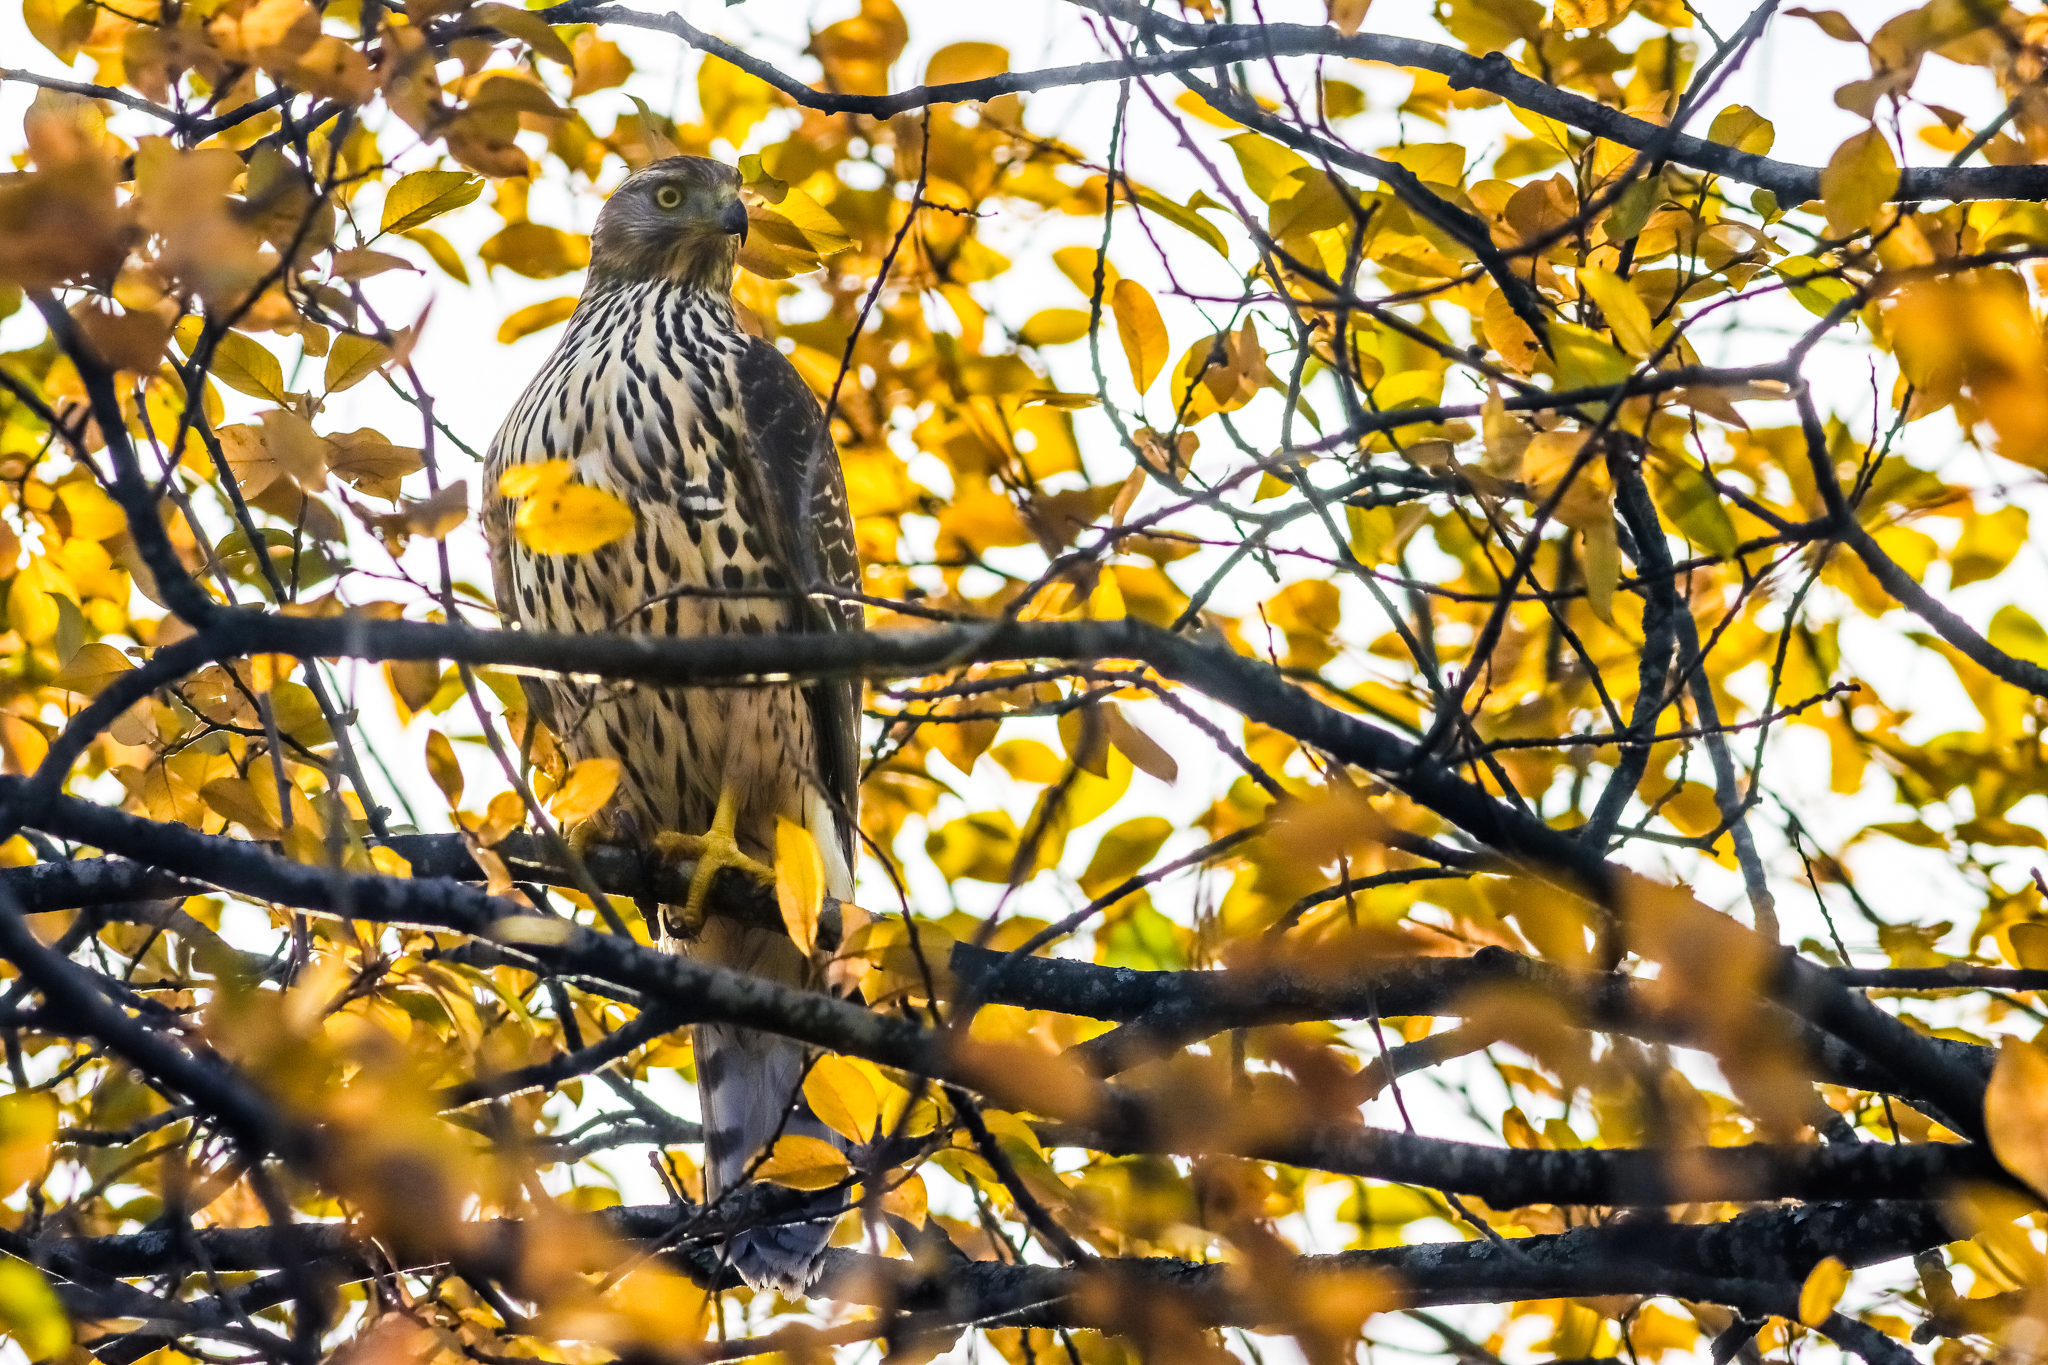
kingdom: Animalia
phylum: Chordata
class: Aves
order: Accipitriformes
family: Accipitridae
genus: Accipiter
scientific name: Accipiter gentilis
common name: Northern goshawk
